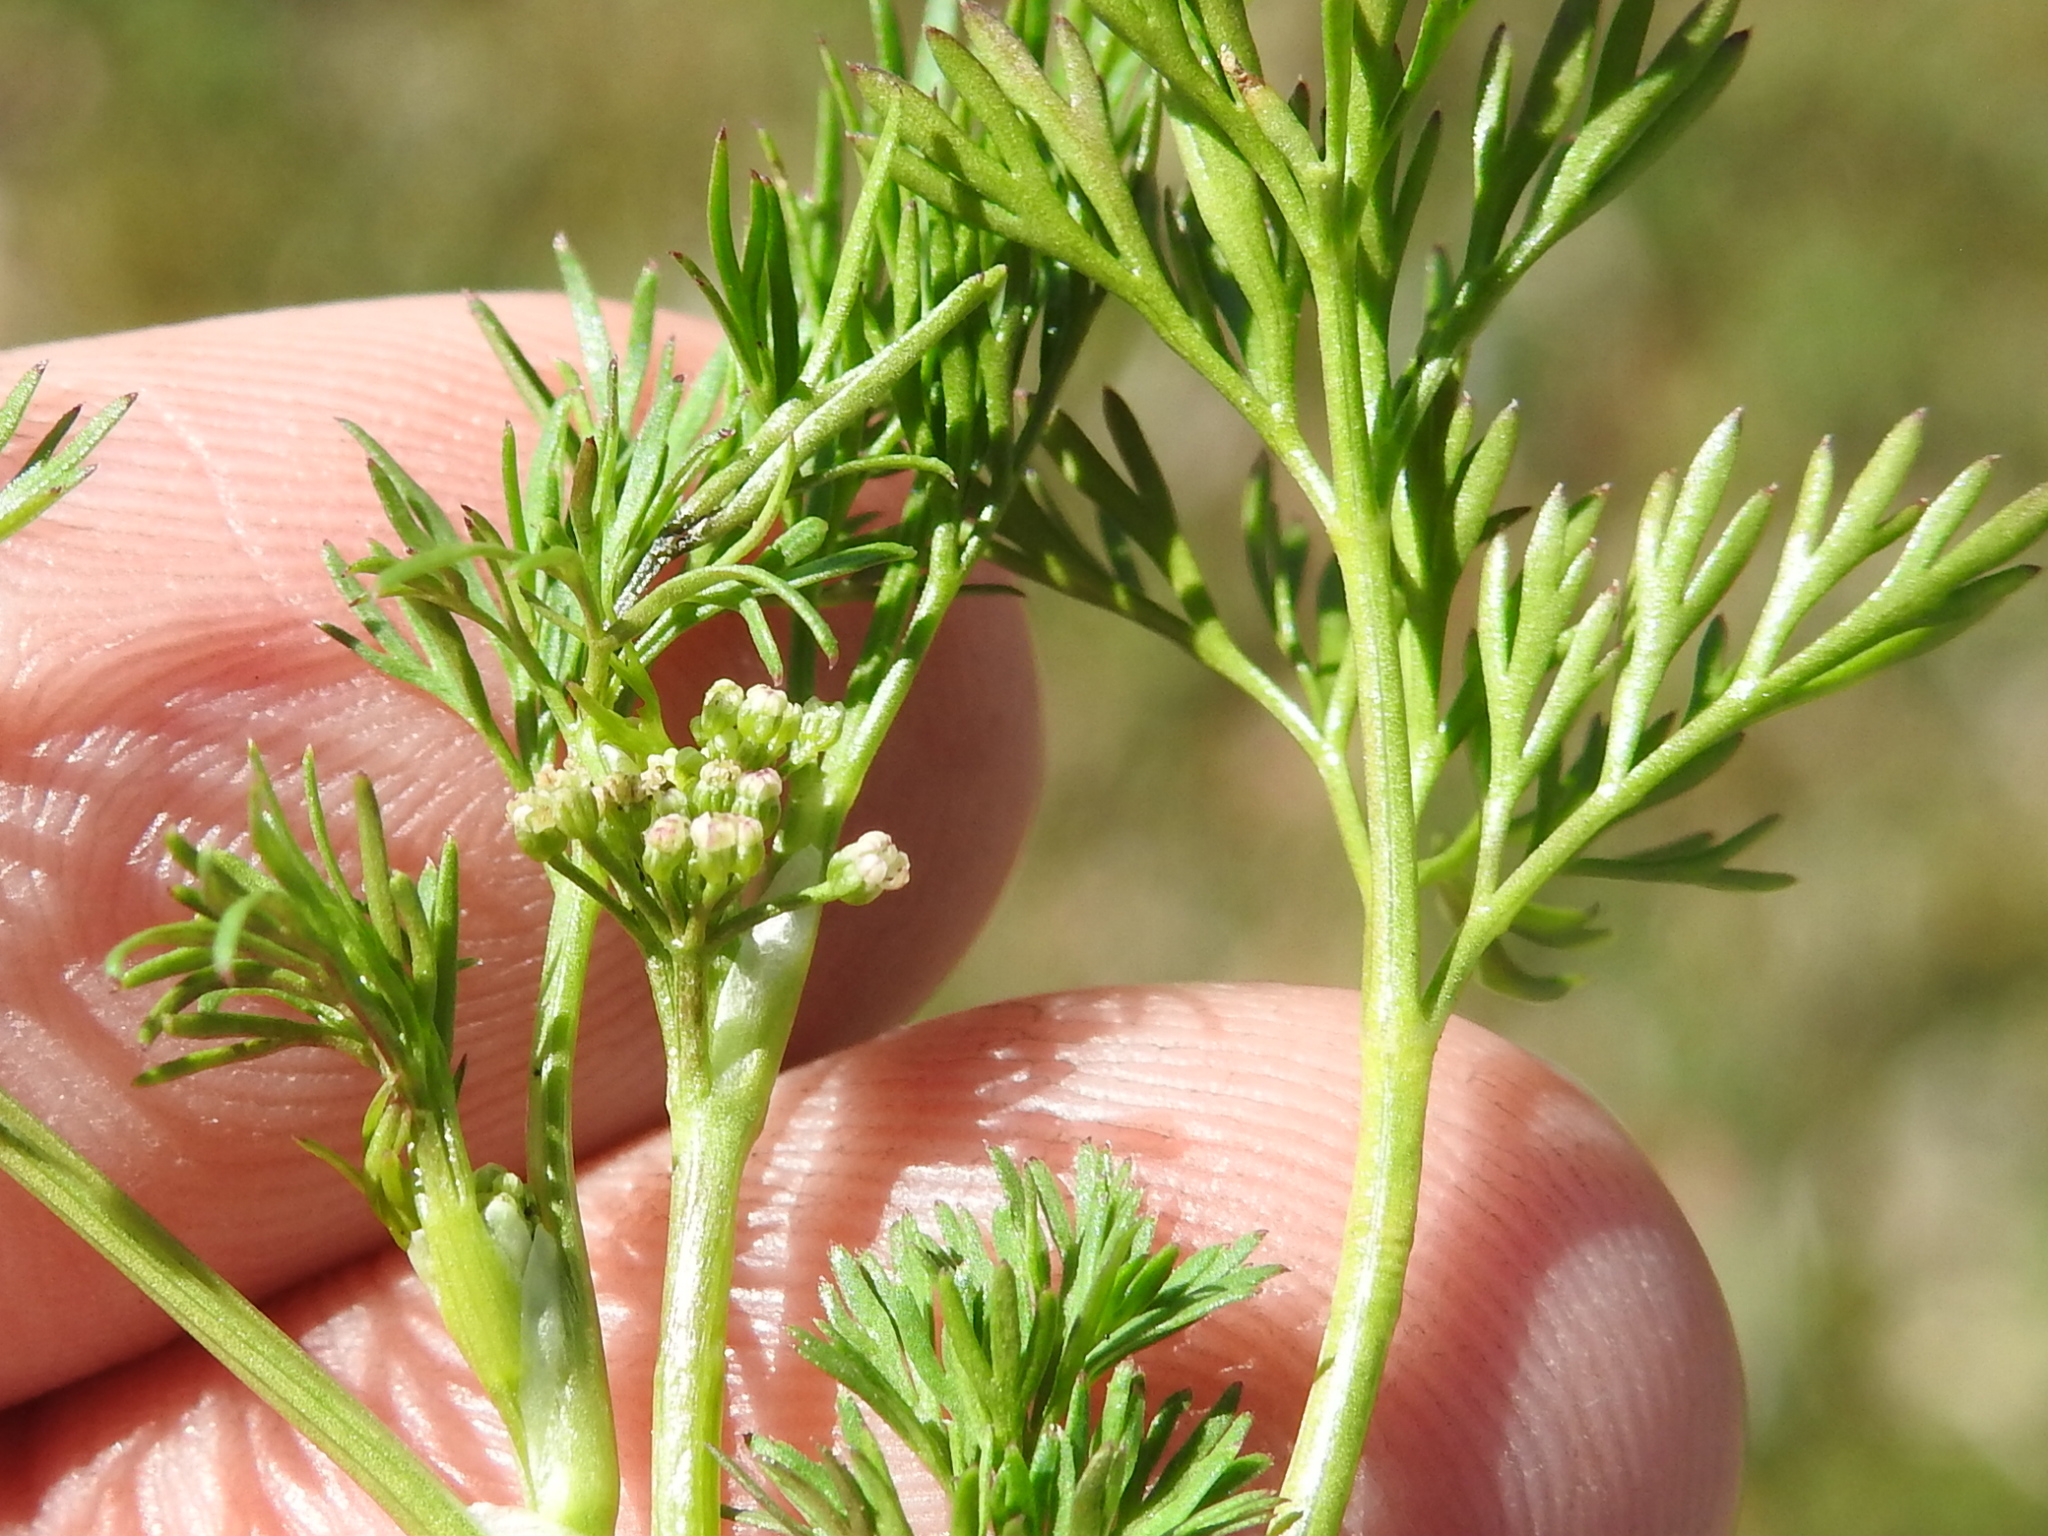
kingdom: Plantae
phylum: Tracheophyta
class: Magnoliopsida
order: Apiales
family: Apiaceae
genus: Cyclospermum
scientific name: Cyclospermum leptophyllum
